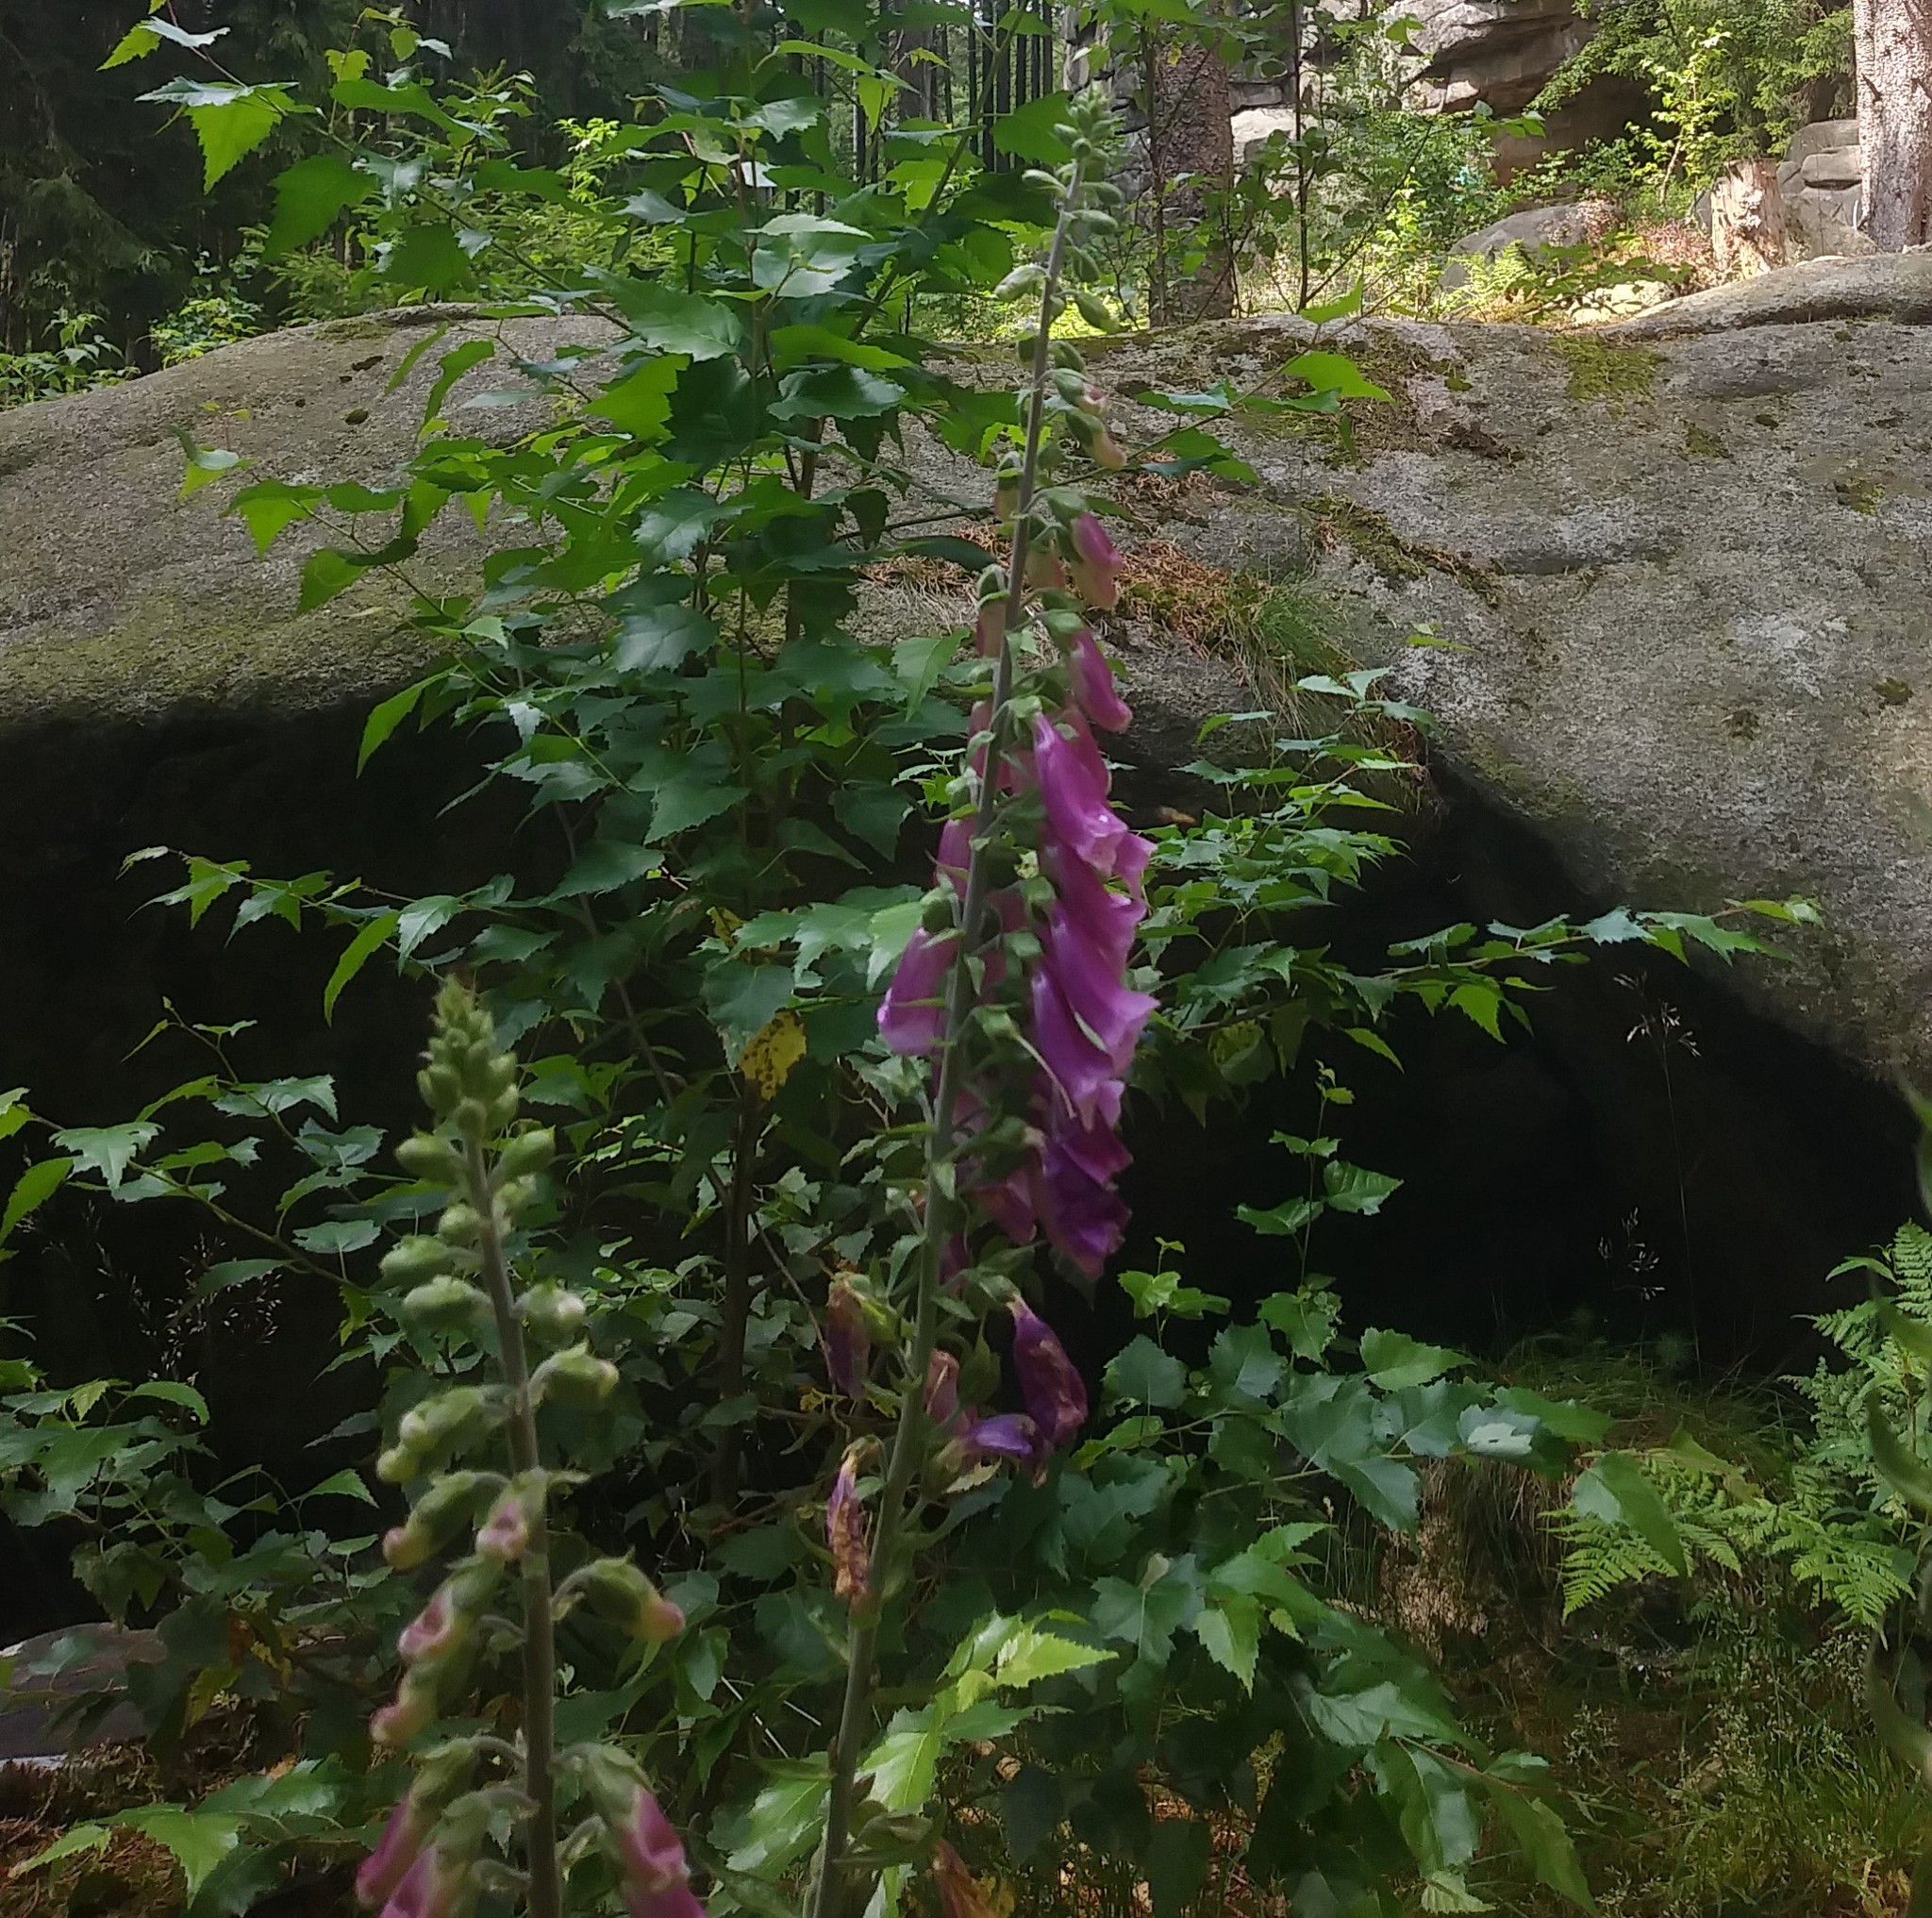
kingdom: Plantae
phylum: Tracheophyta
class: Magnoliopsida
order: Lamiales
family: Plantaginaceae
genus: Digitalis
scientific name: Digitalis purpurea
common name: Foxglove
